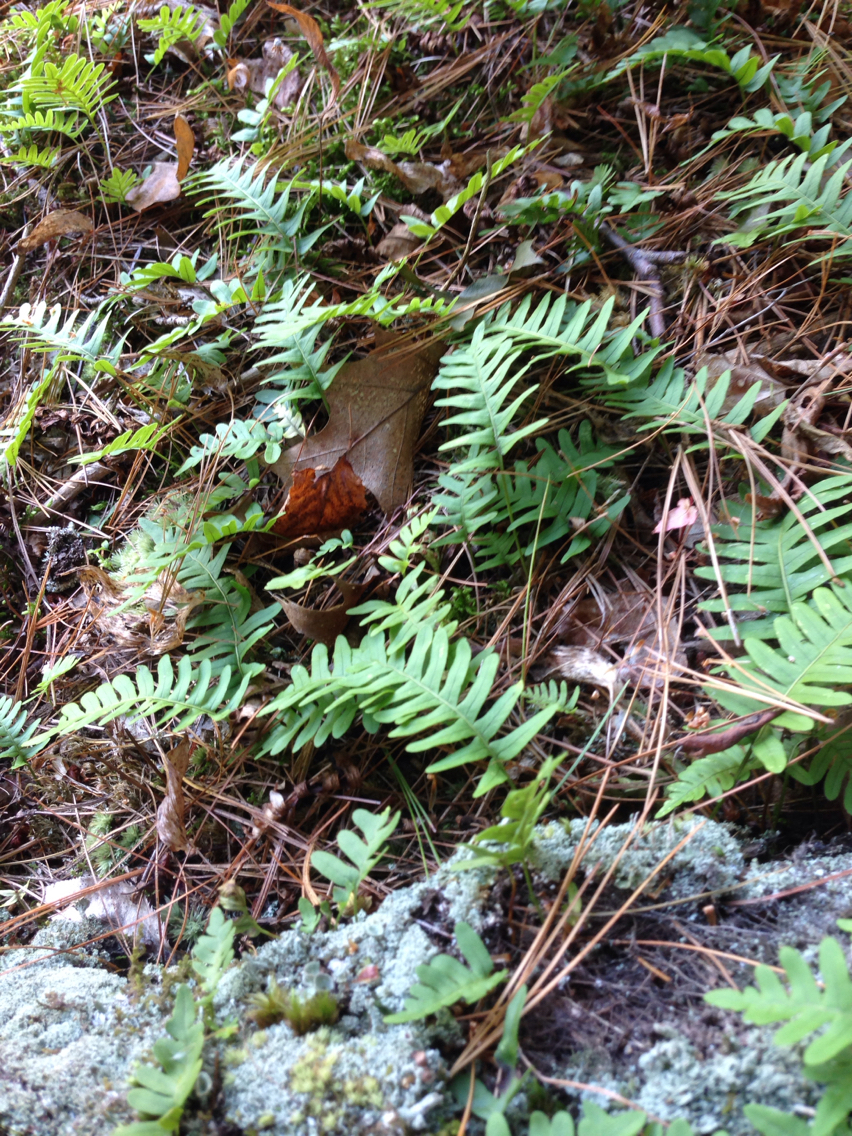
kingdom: Plantae
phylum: Tracheophyta
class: Polypodiopsida
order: Polypodiales
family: Polypodiaceae
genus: Polypodium
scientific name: Polypodium virginianum
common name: American wall fern
